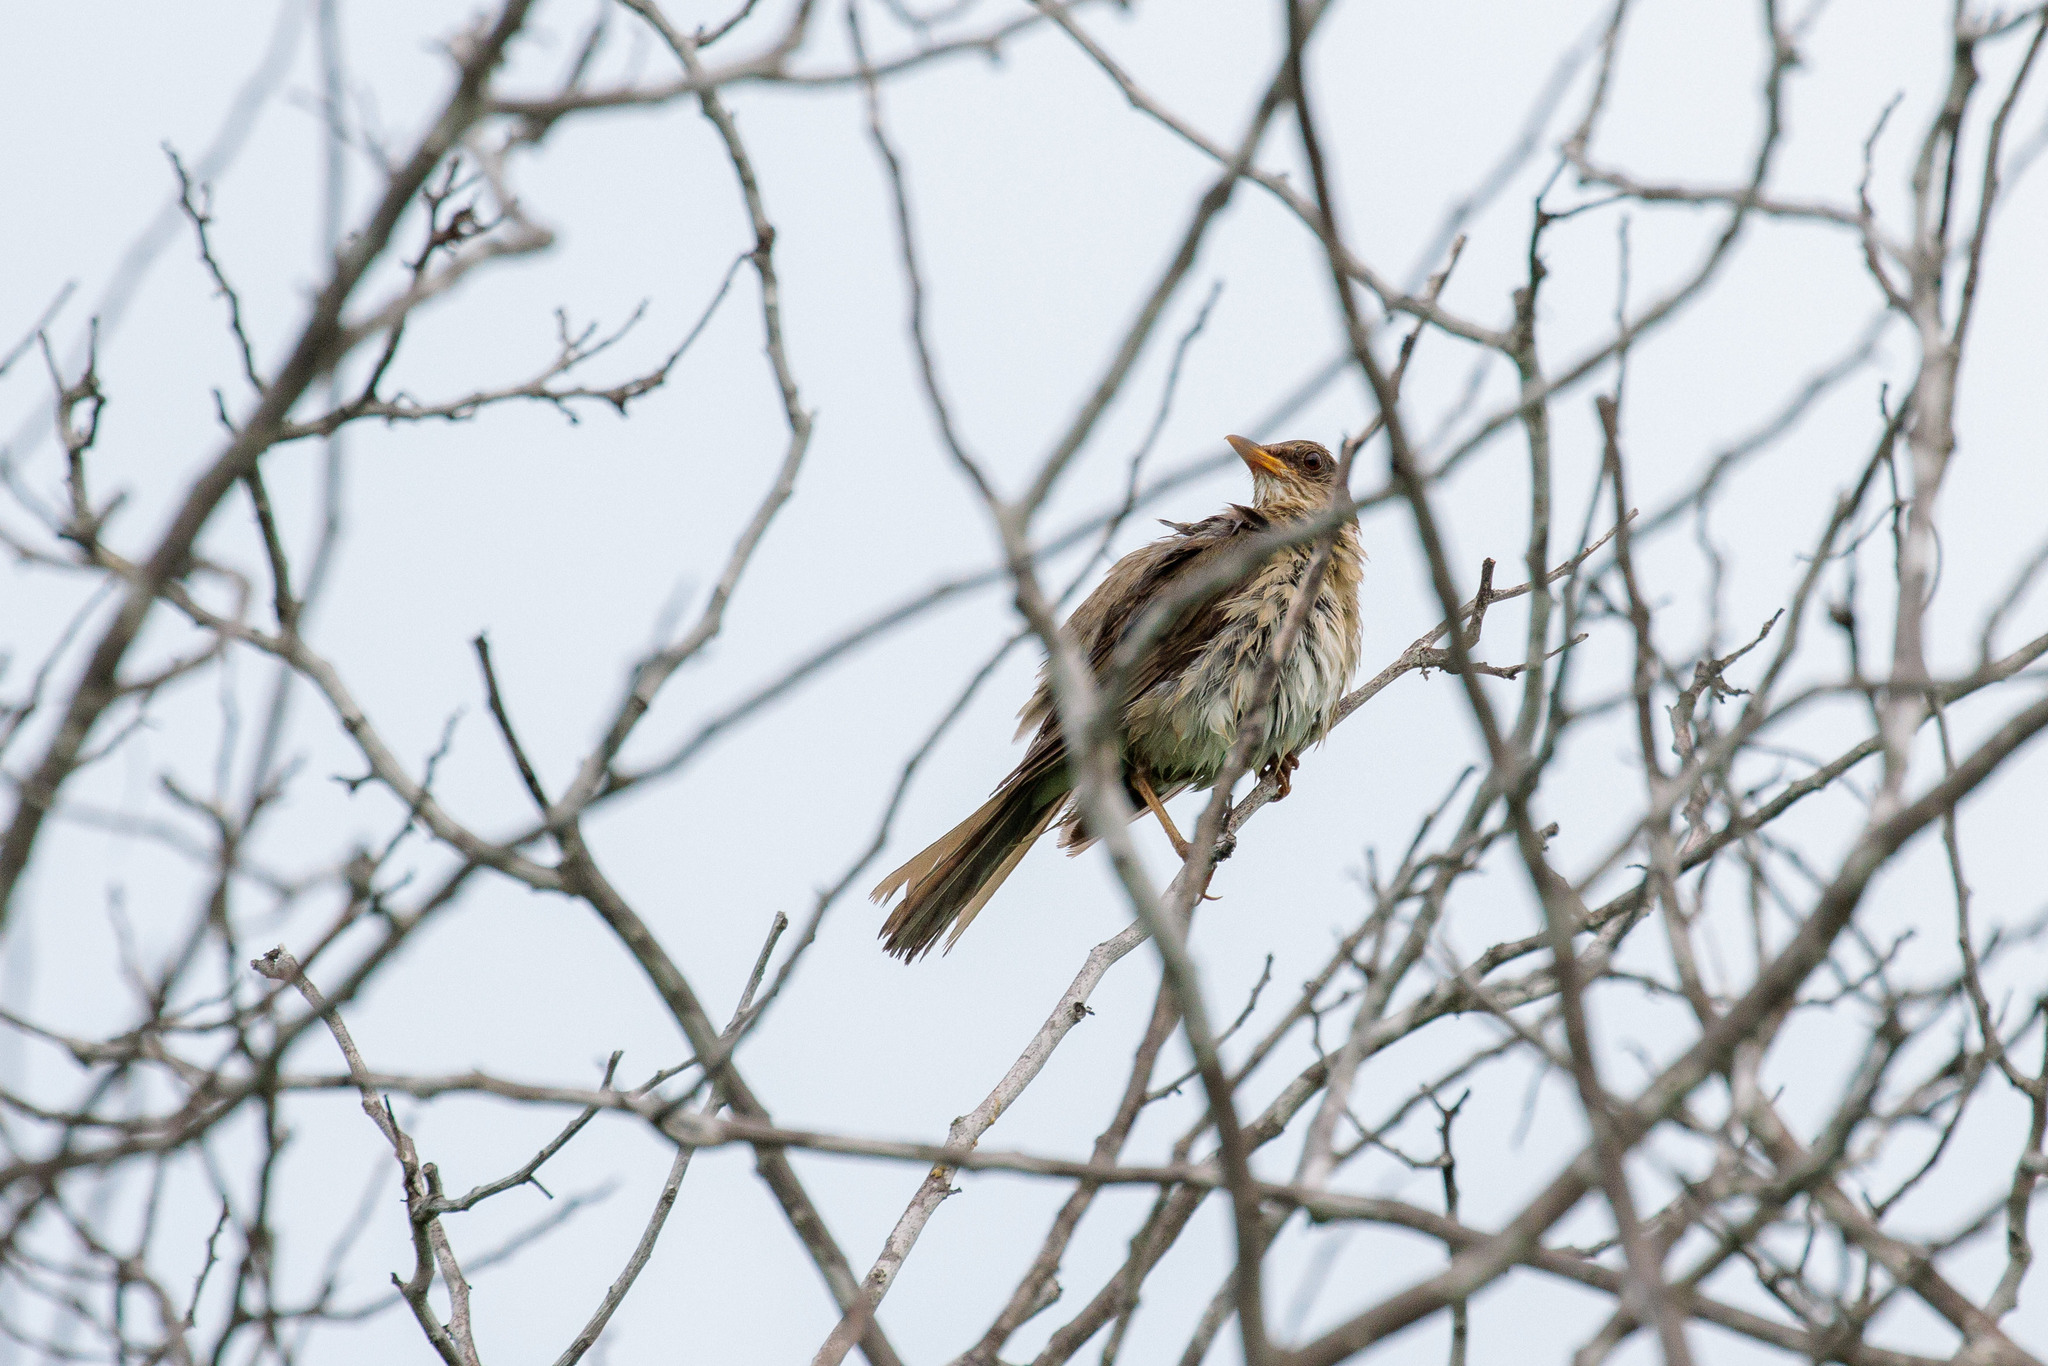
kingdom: Animalia
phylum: Chordata
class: Aves
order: Passeriformes
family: Turdidae
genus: Turdus
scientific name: Turdus amaurochalinus
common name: Creamy-bellied thrush
